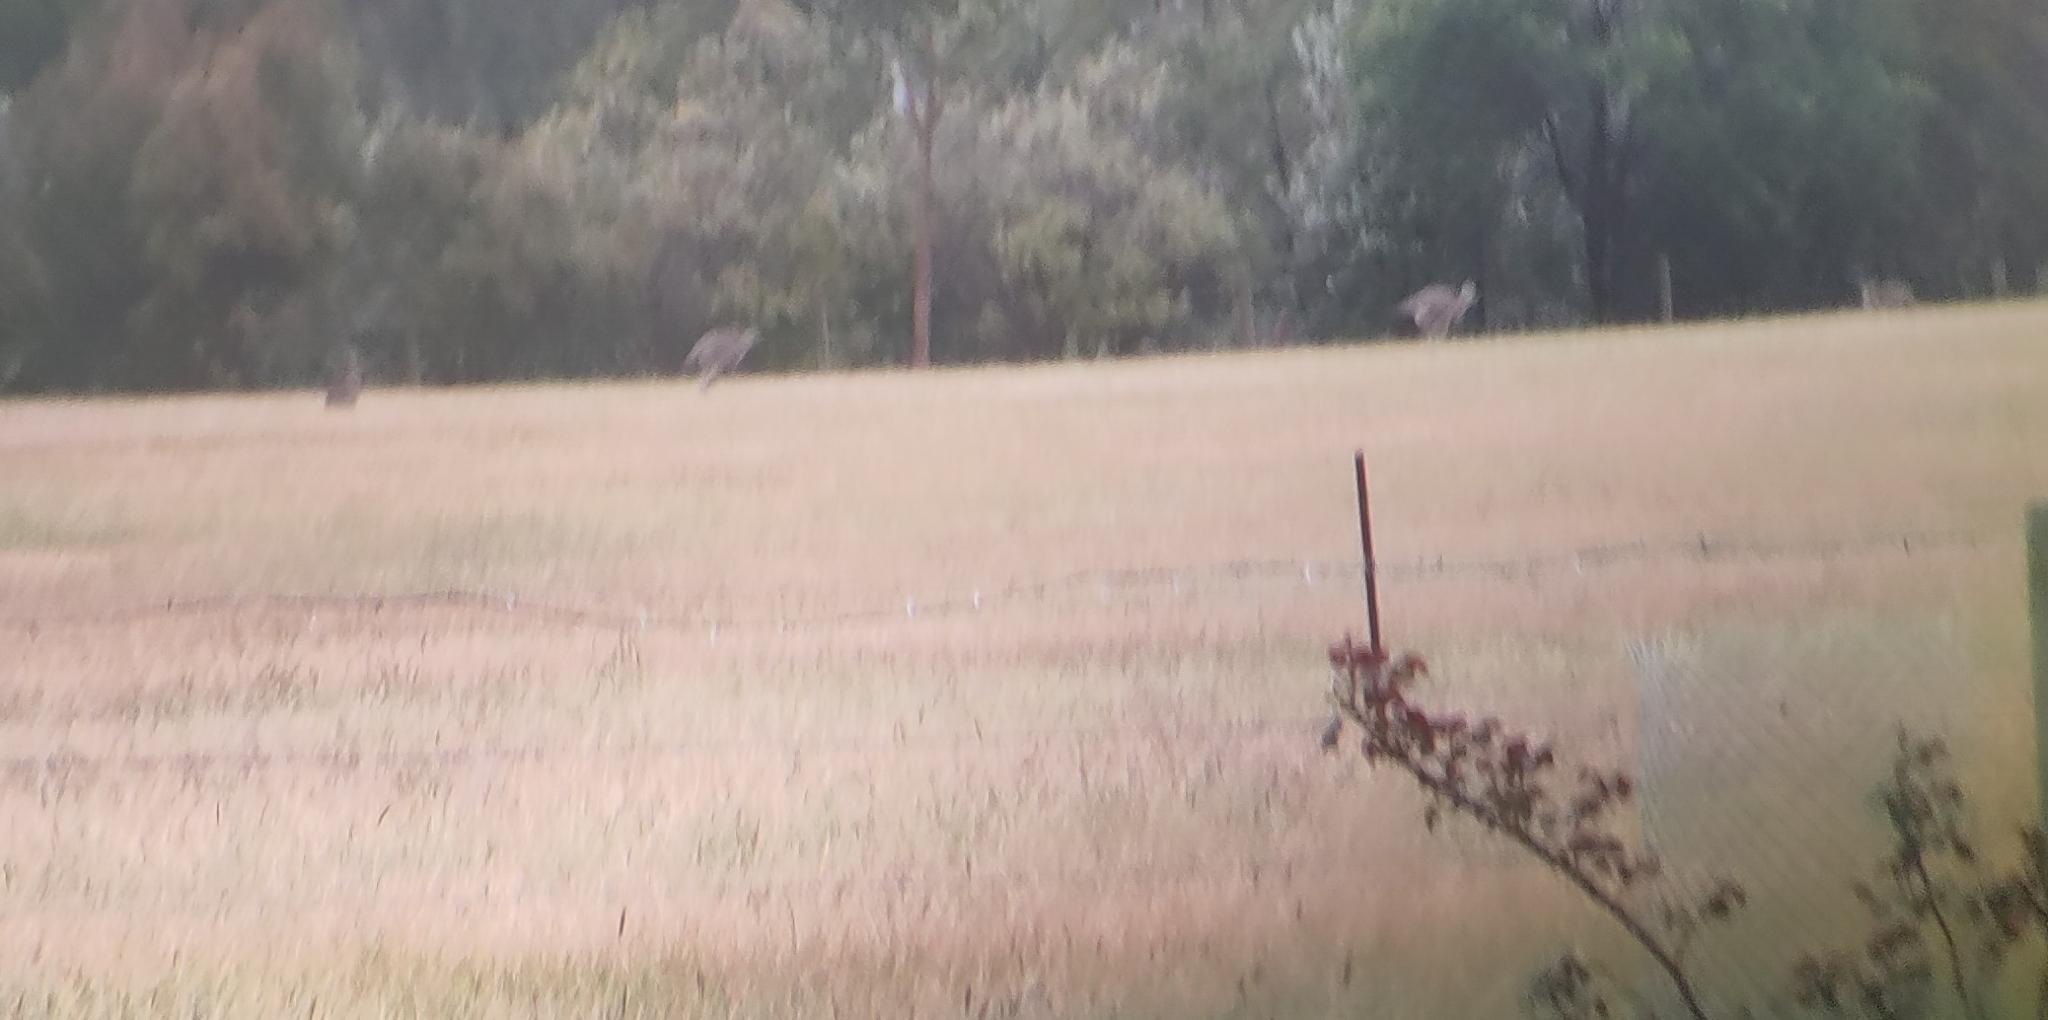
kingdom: Animalia
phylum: Chordata
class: Mammalia
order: Diprotodontia
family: Macropodidae
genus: Macropus
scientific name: Macropus giganteus
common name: Eastern grey kangaroo
